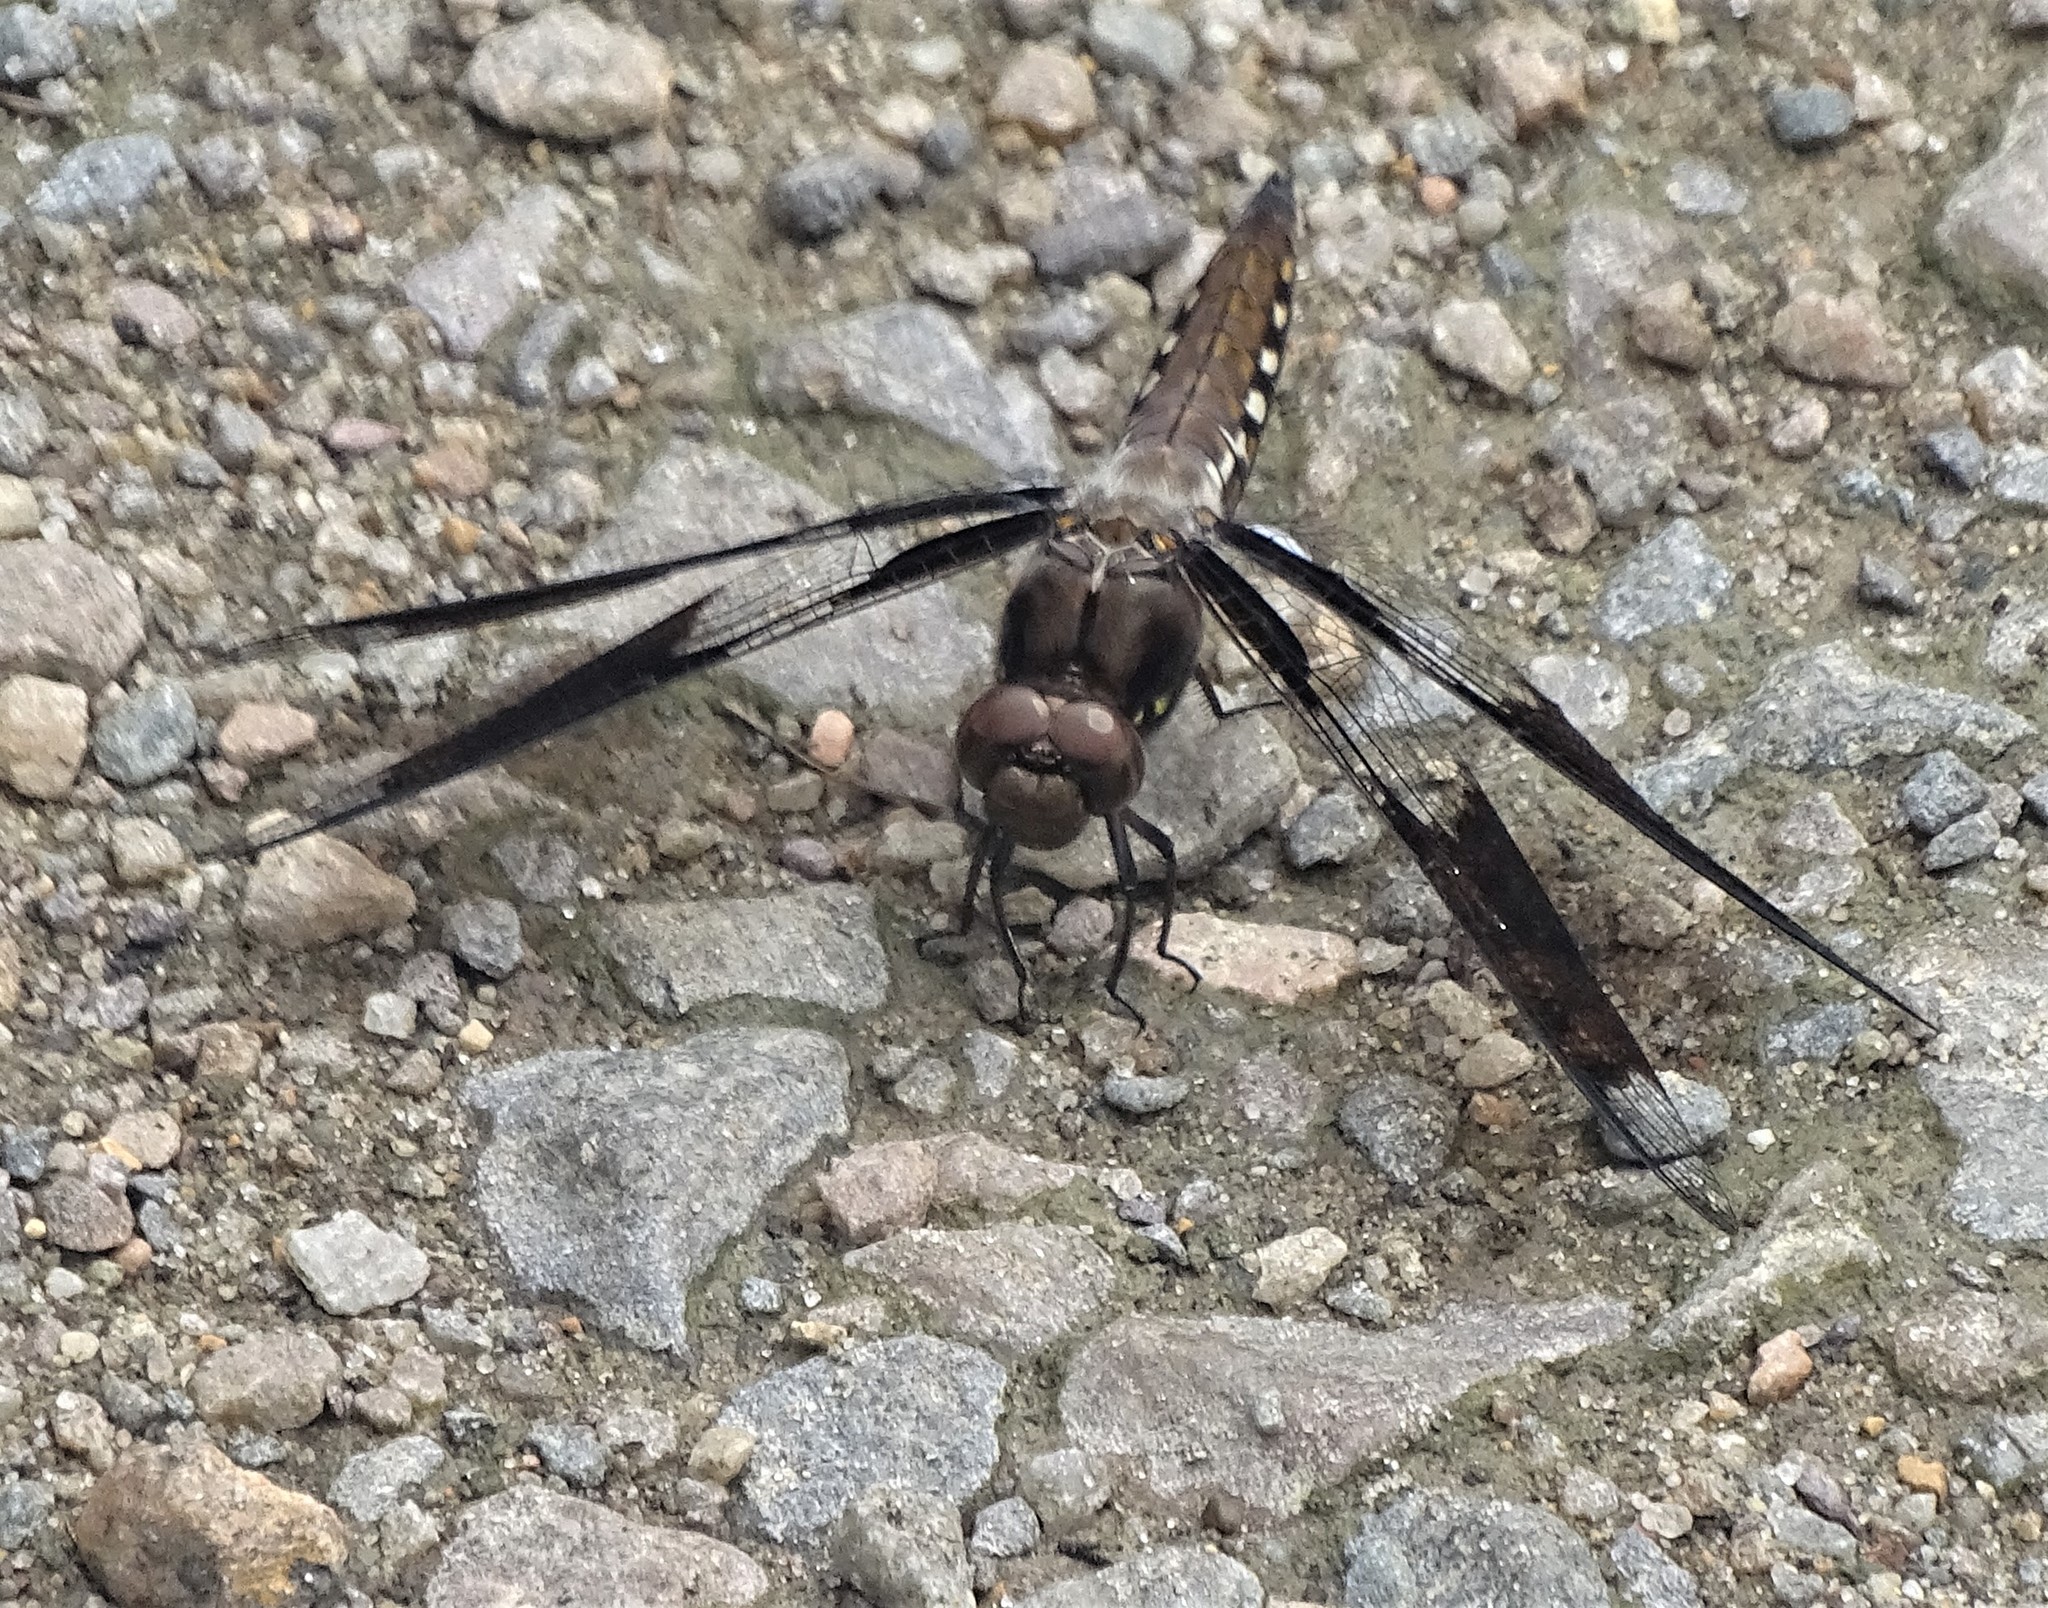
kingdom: Animalia
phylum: Arthropoda
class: Insecta
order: Odonata
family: Libellulidae
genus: Plathemis
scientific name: Plathemis lydia
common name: Common whitetail
